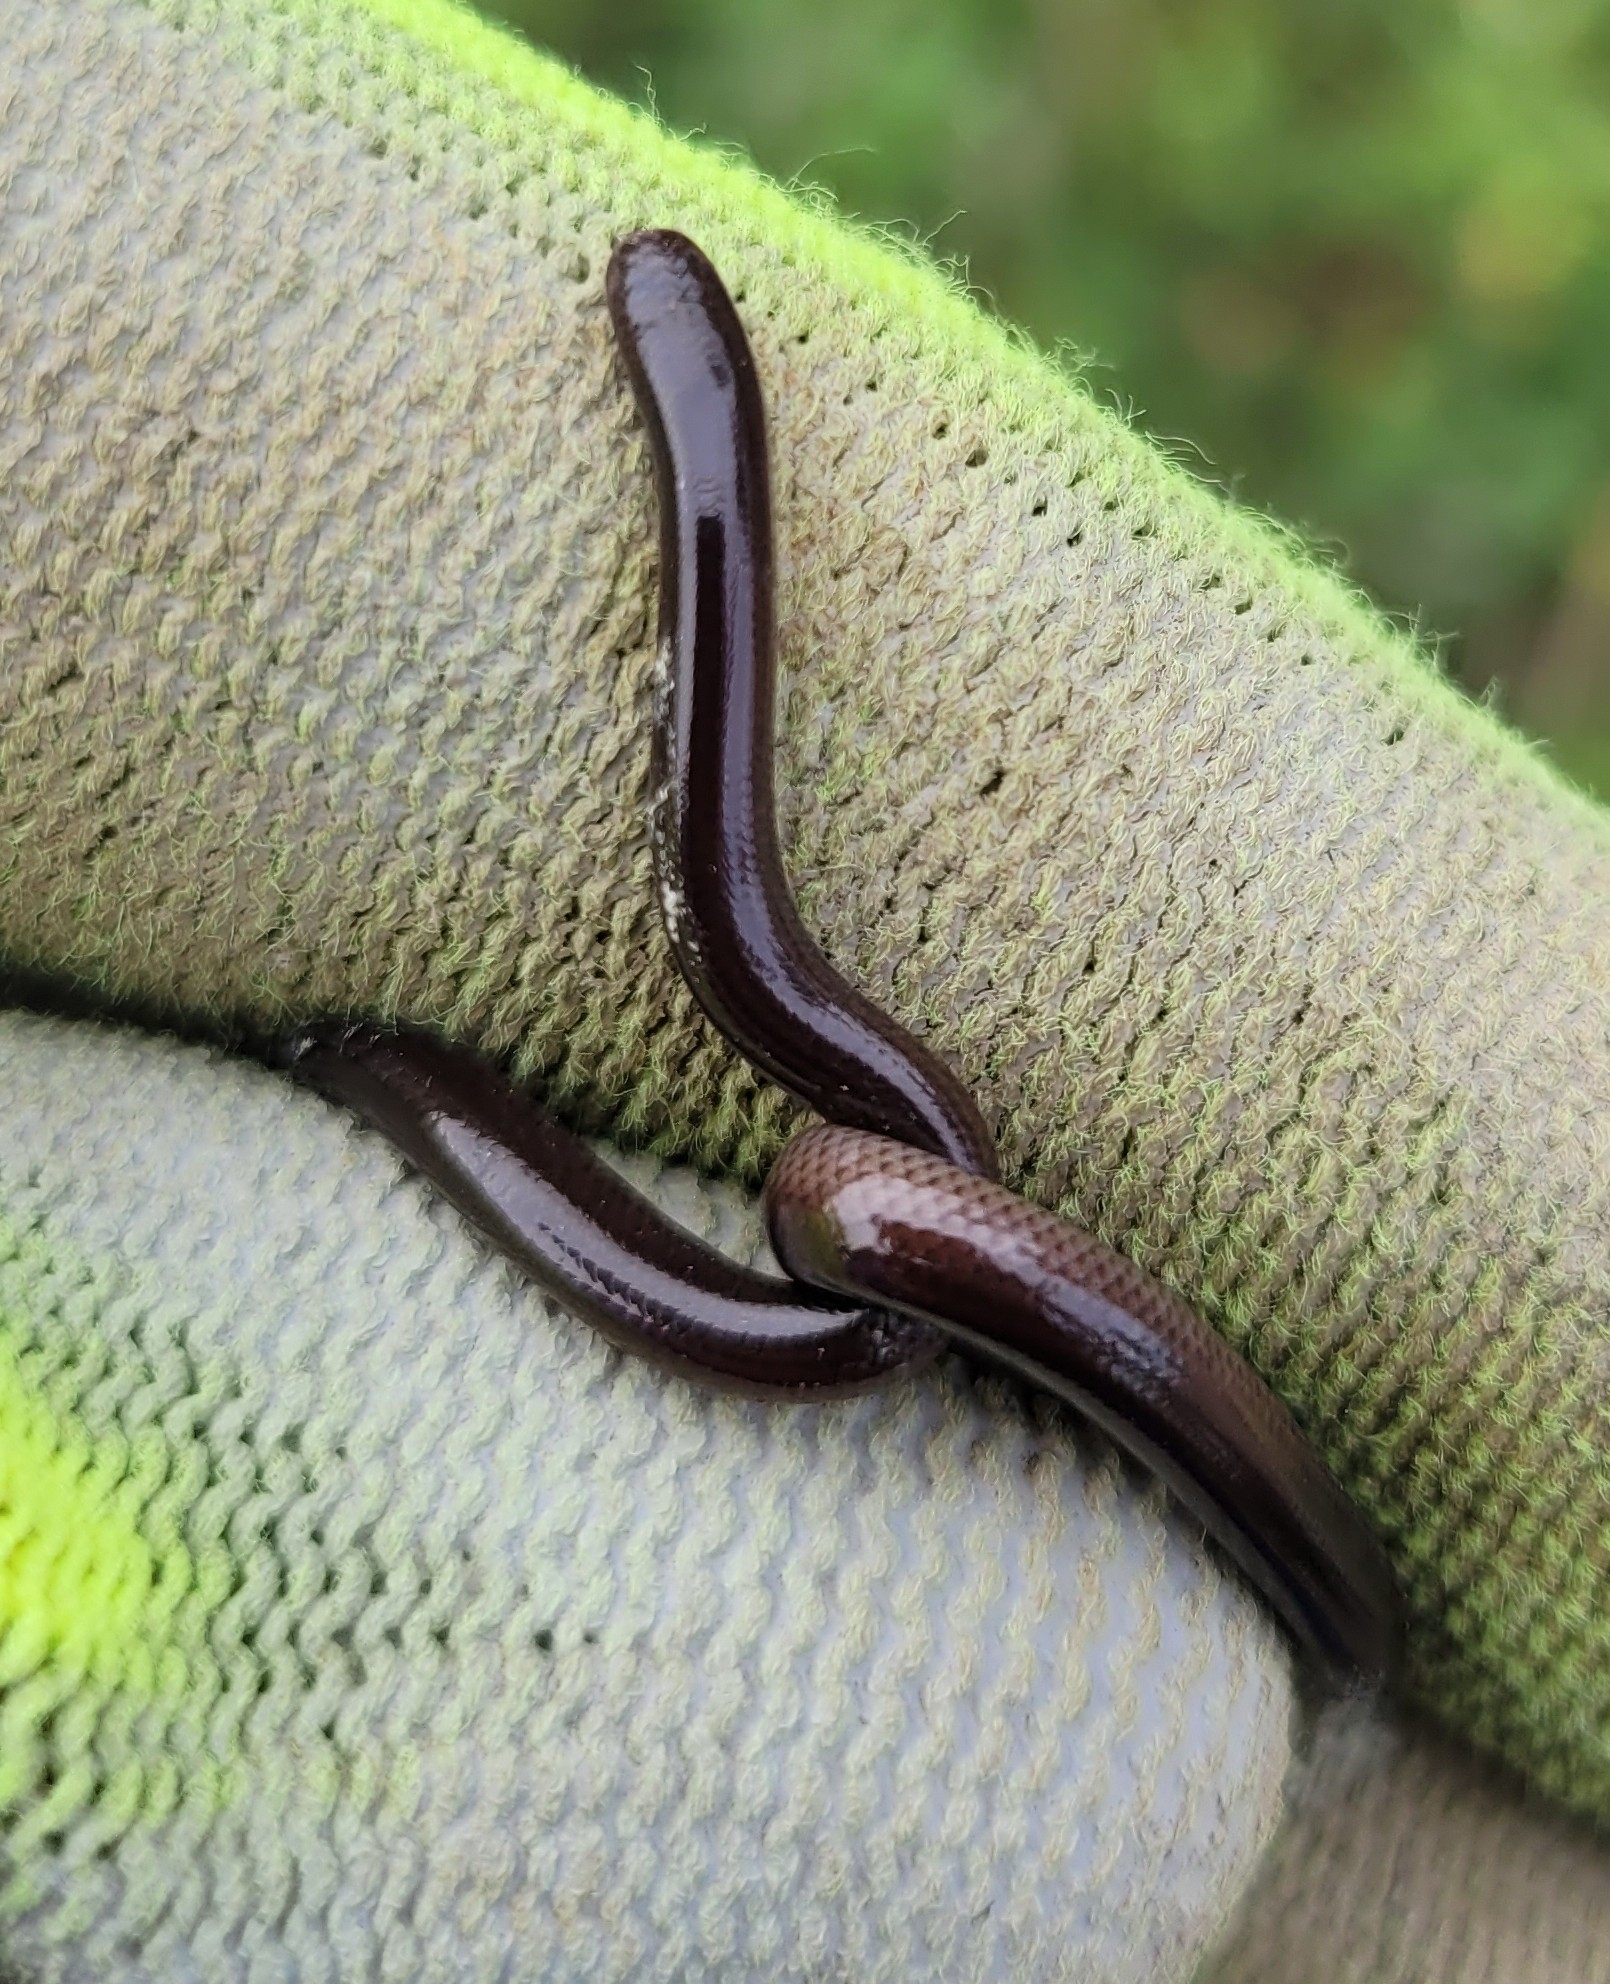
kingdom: Animalia
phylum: Chordata
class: Squamata
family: Typhlopidae
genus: Indotyphlops
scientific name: Indotyphlops braminus
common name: Brahminy blindsnake
